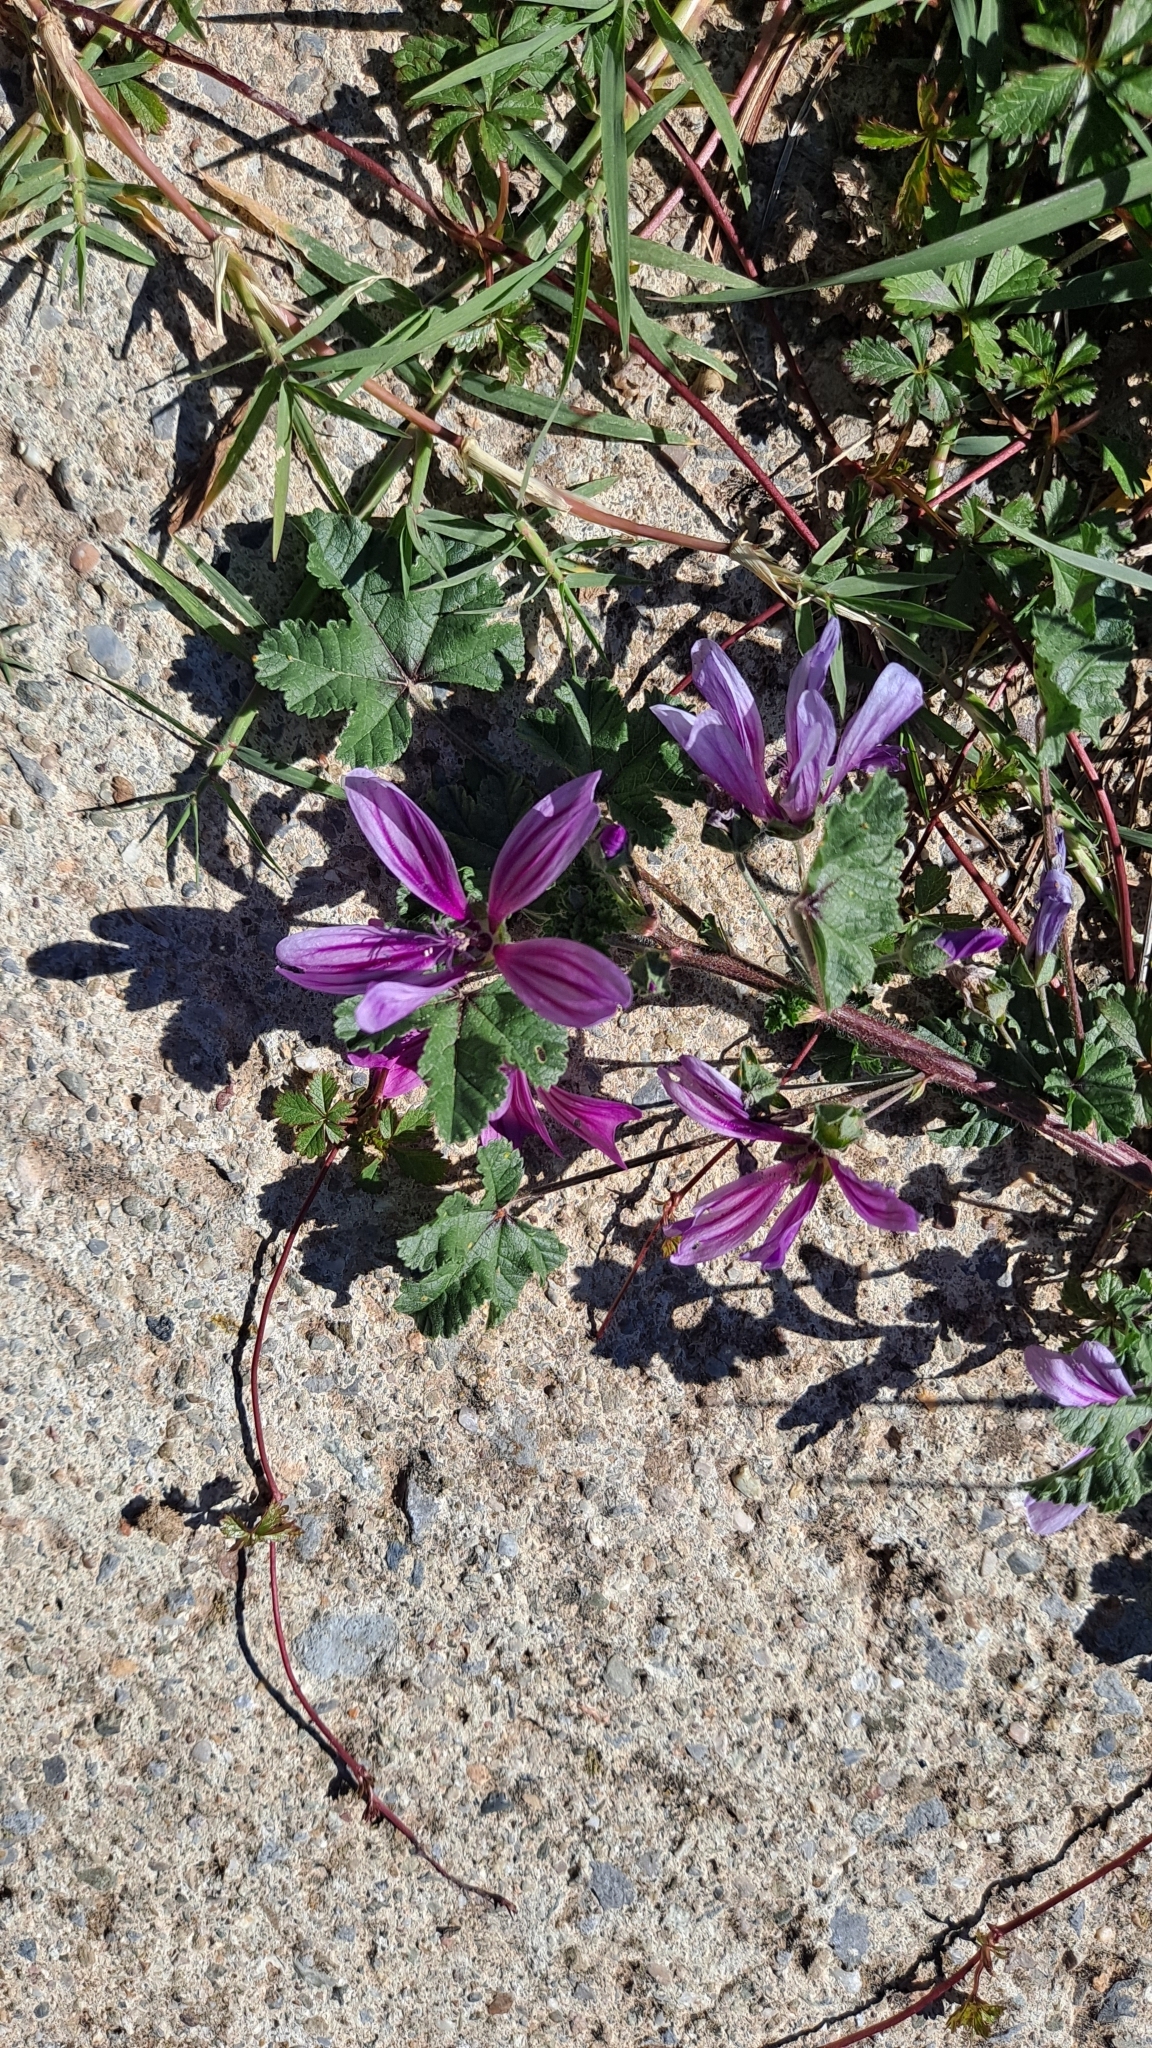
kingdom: Plantae
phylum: Tracheophyta
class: Magnoliopsida
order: Malvales
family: Malvaceae
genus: Malva
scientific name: Malva sylvestris
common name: Common mallow
